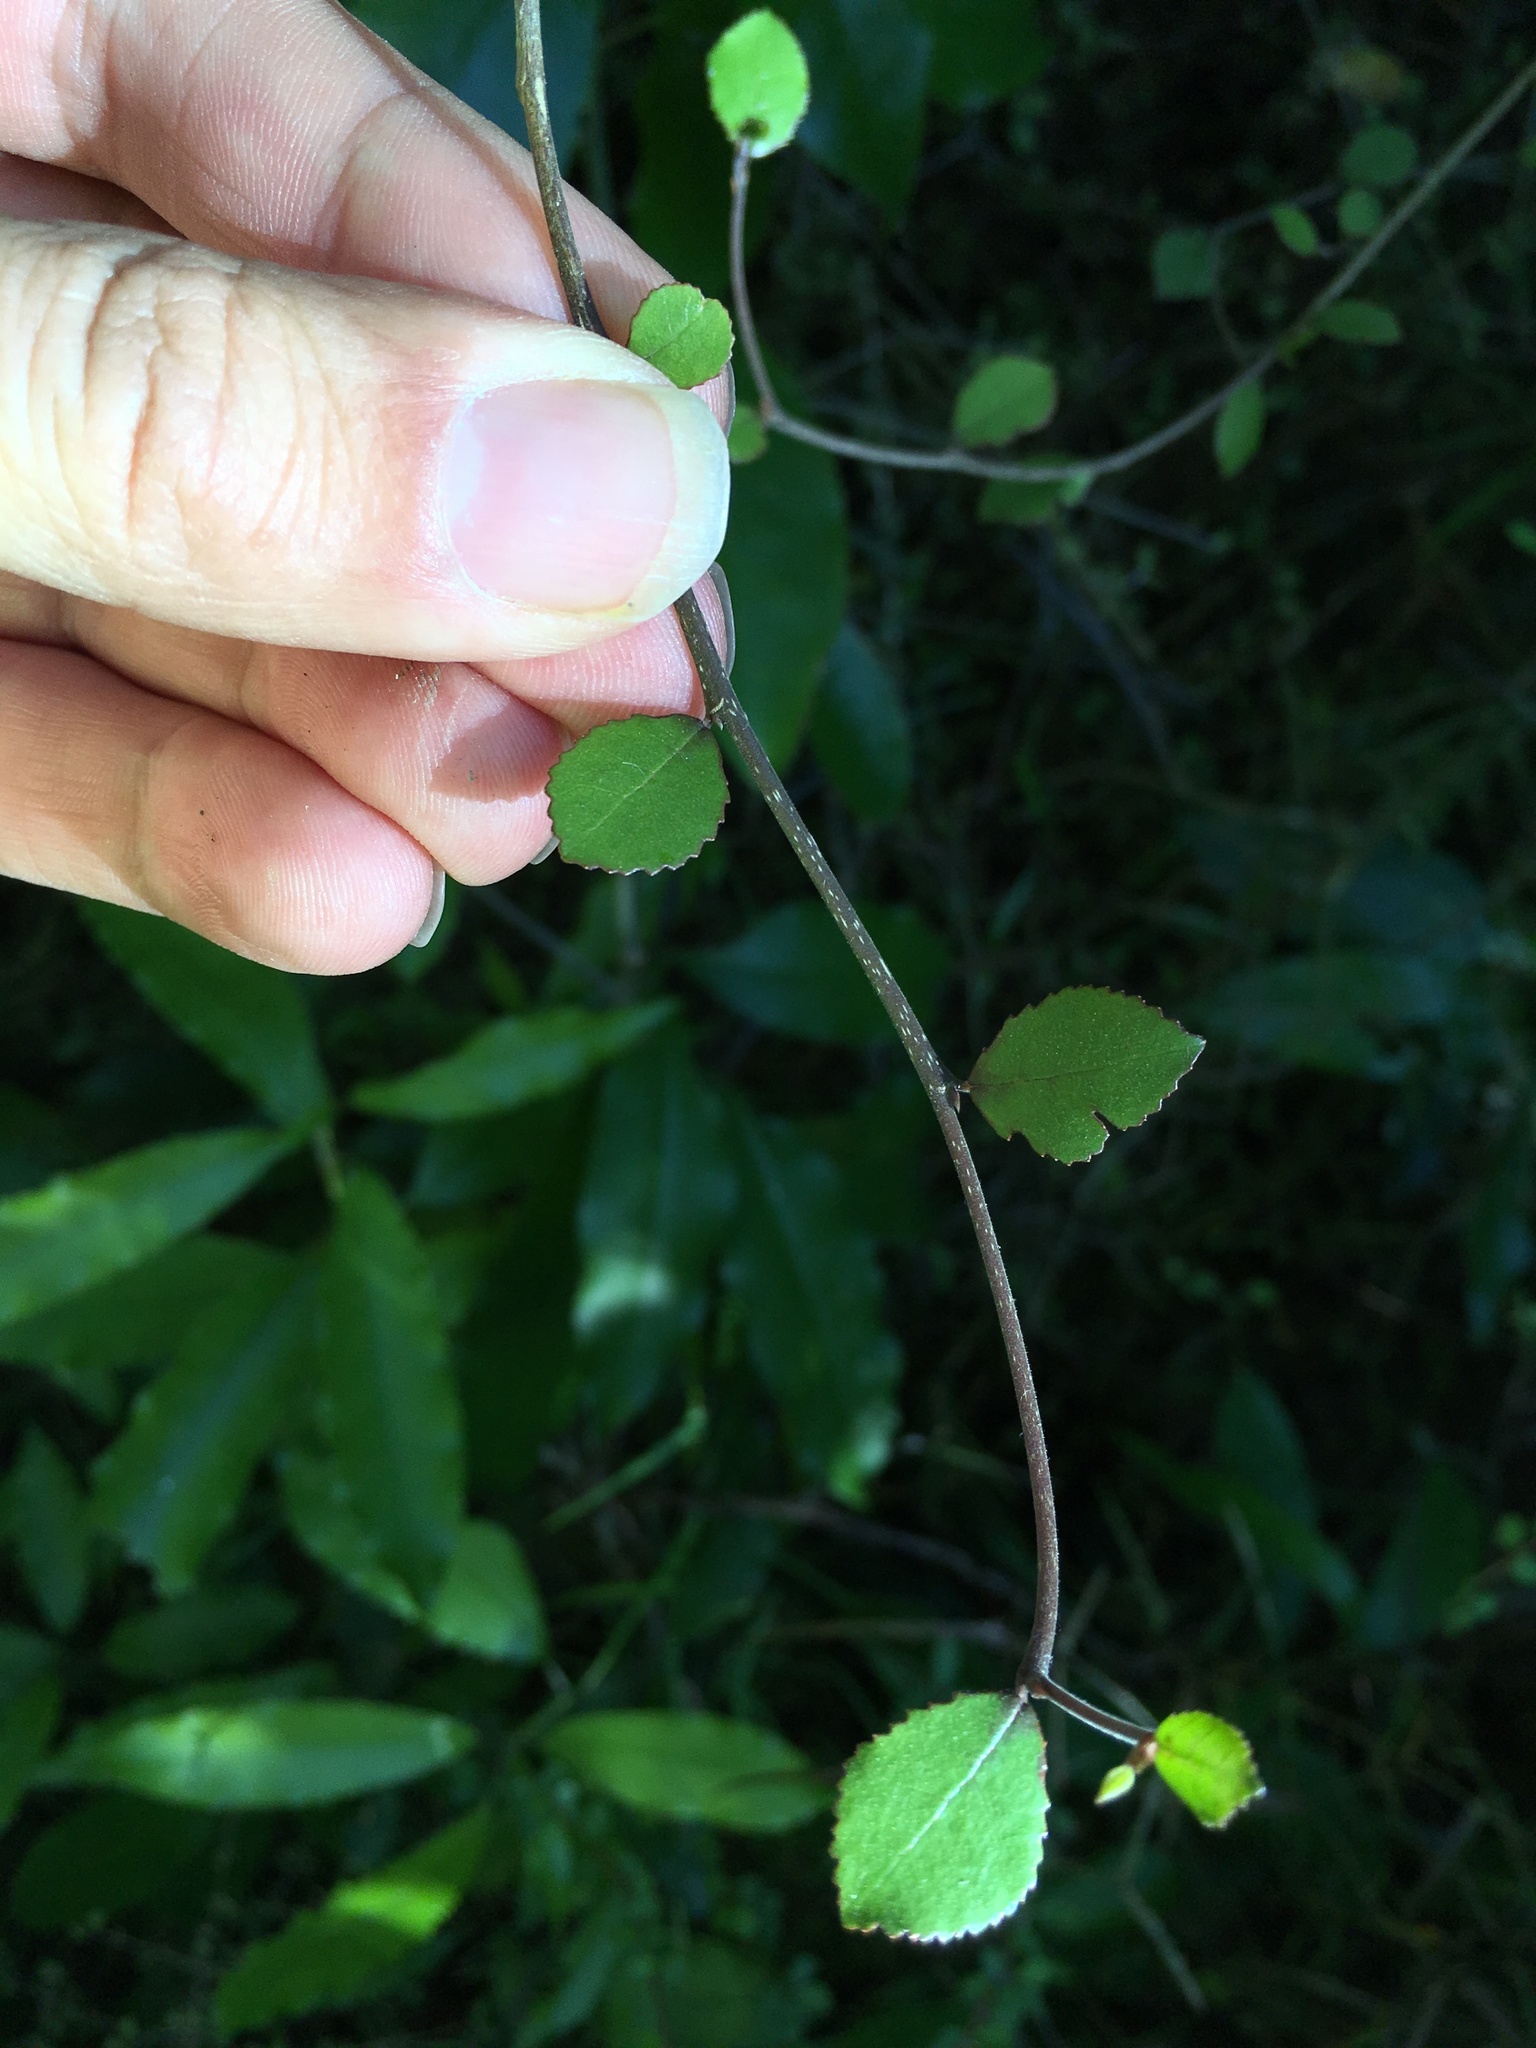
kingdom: Plantae
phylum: Tracheophyta
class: Magnoliopsida
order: Rosales
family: Moraceae
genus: Paratrophis
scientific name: Paratrophis microphylla
